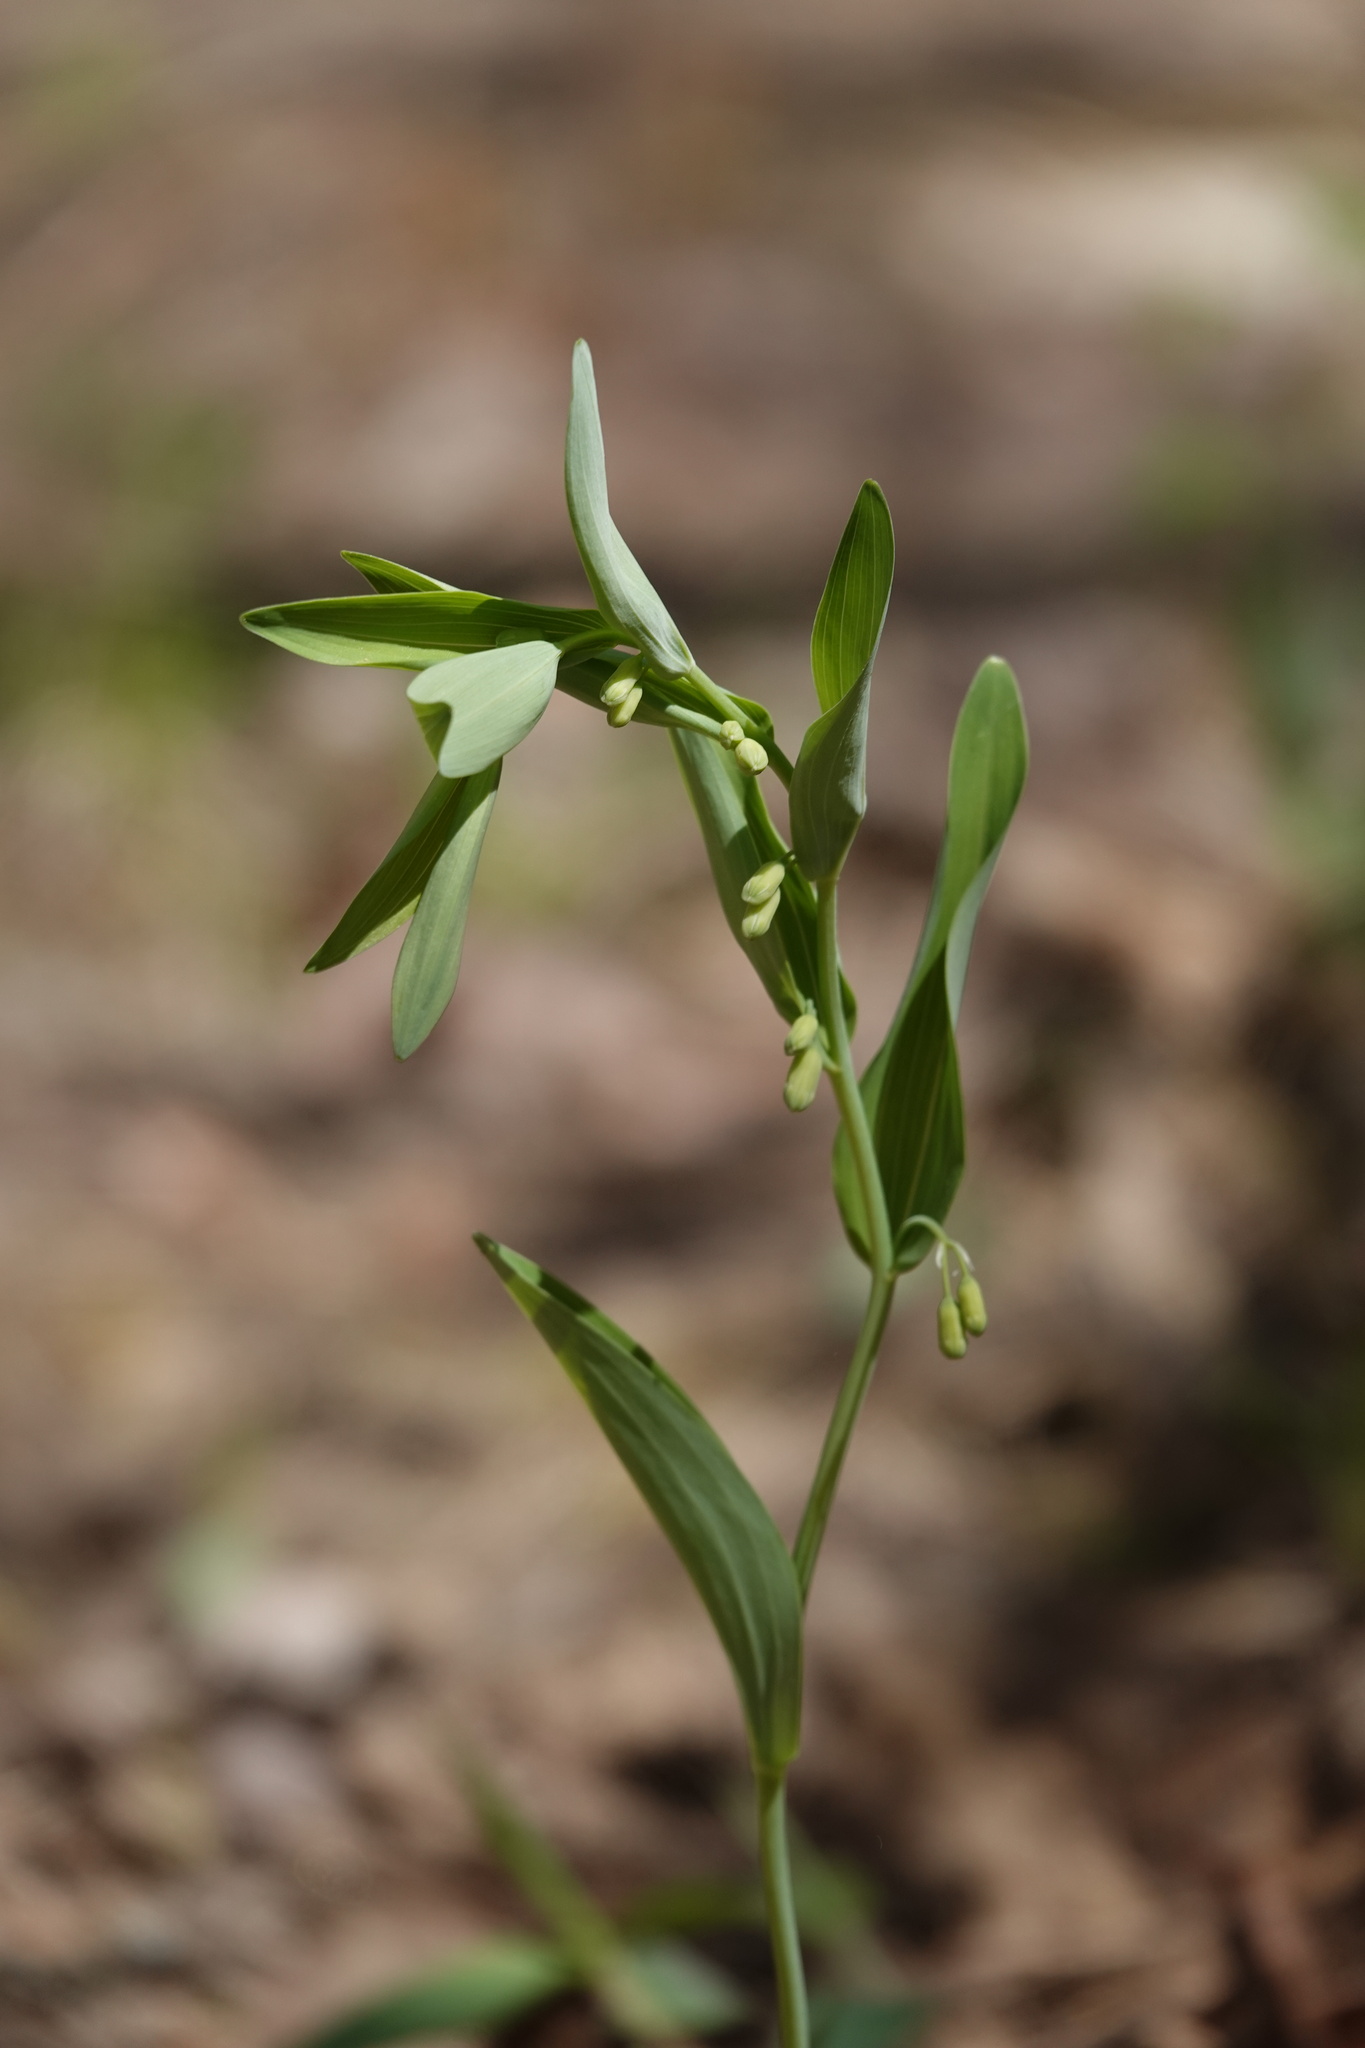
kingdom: Plantae
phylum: Tracheophyta
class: Liliopsida
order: Asparagales
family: Asparagaceae
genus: Polygonatum
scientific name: Polygonatum biflorum
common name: American solomon's-seal
